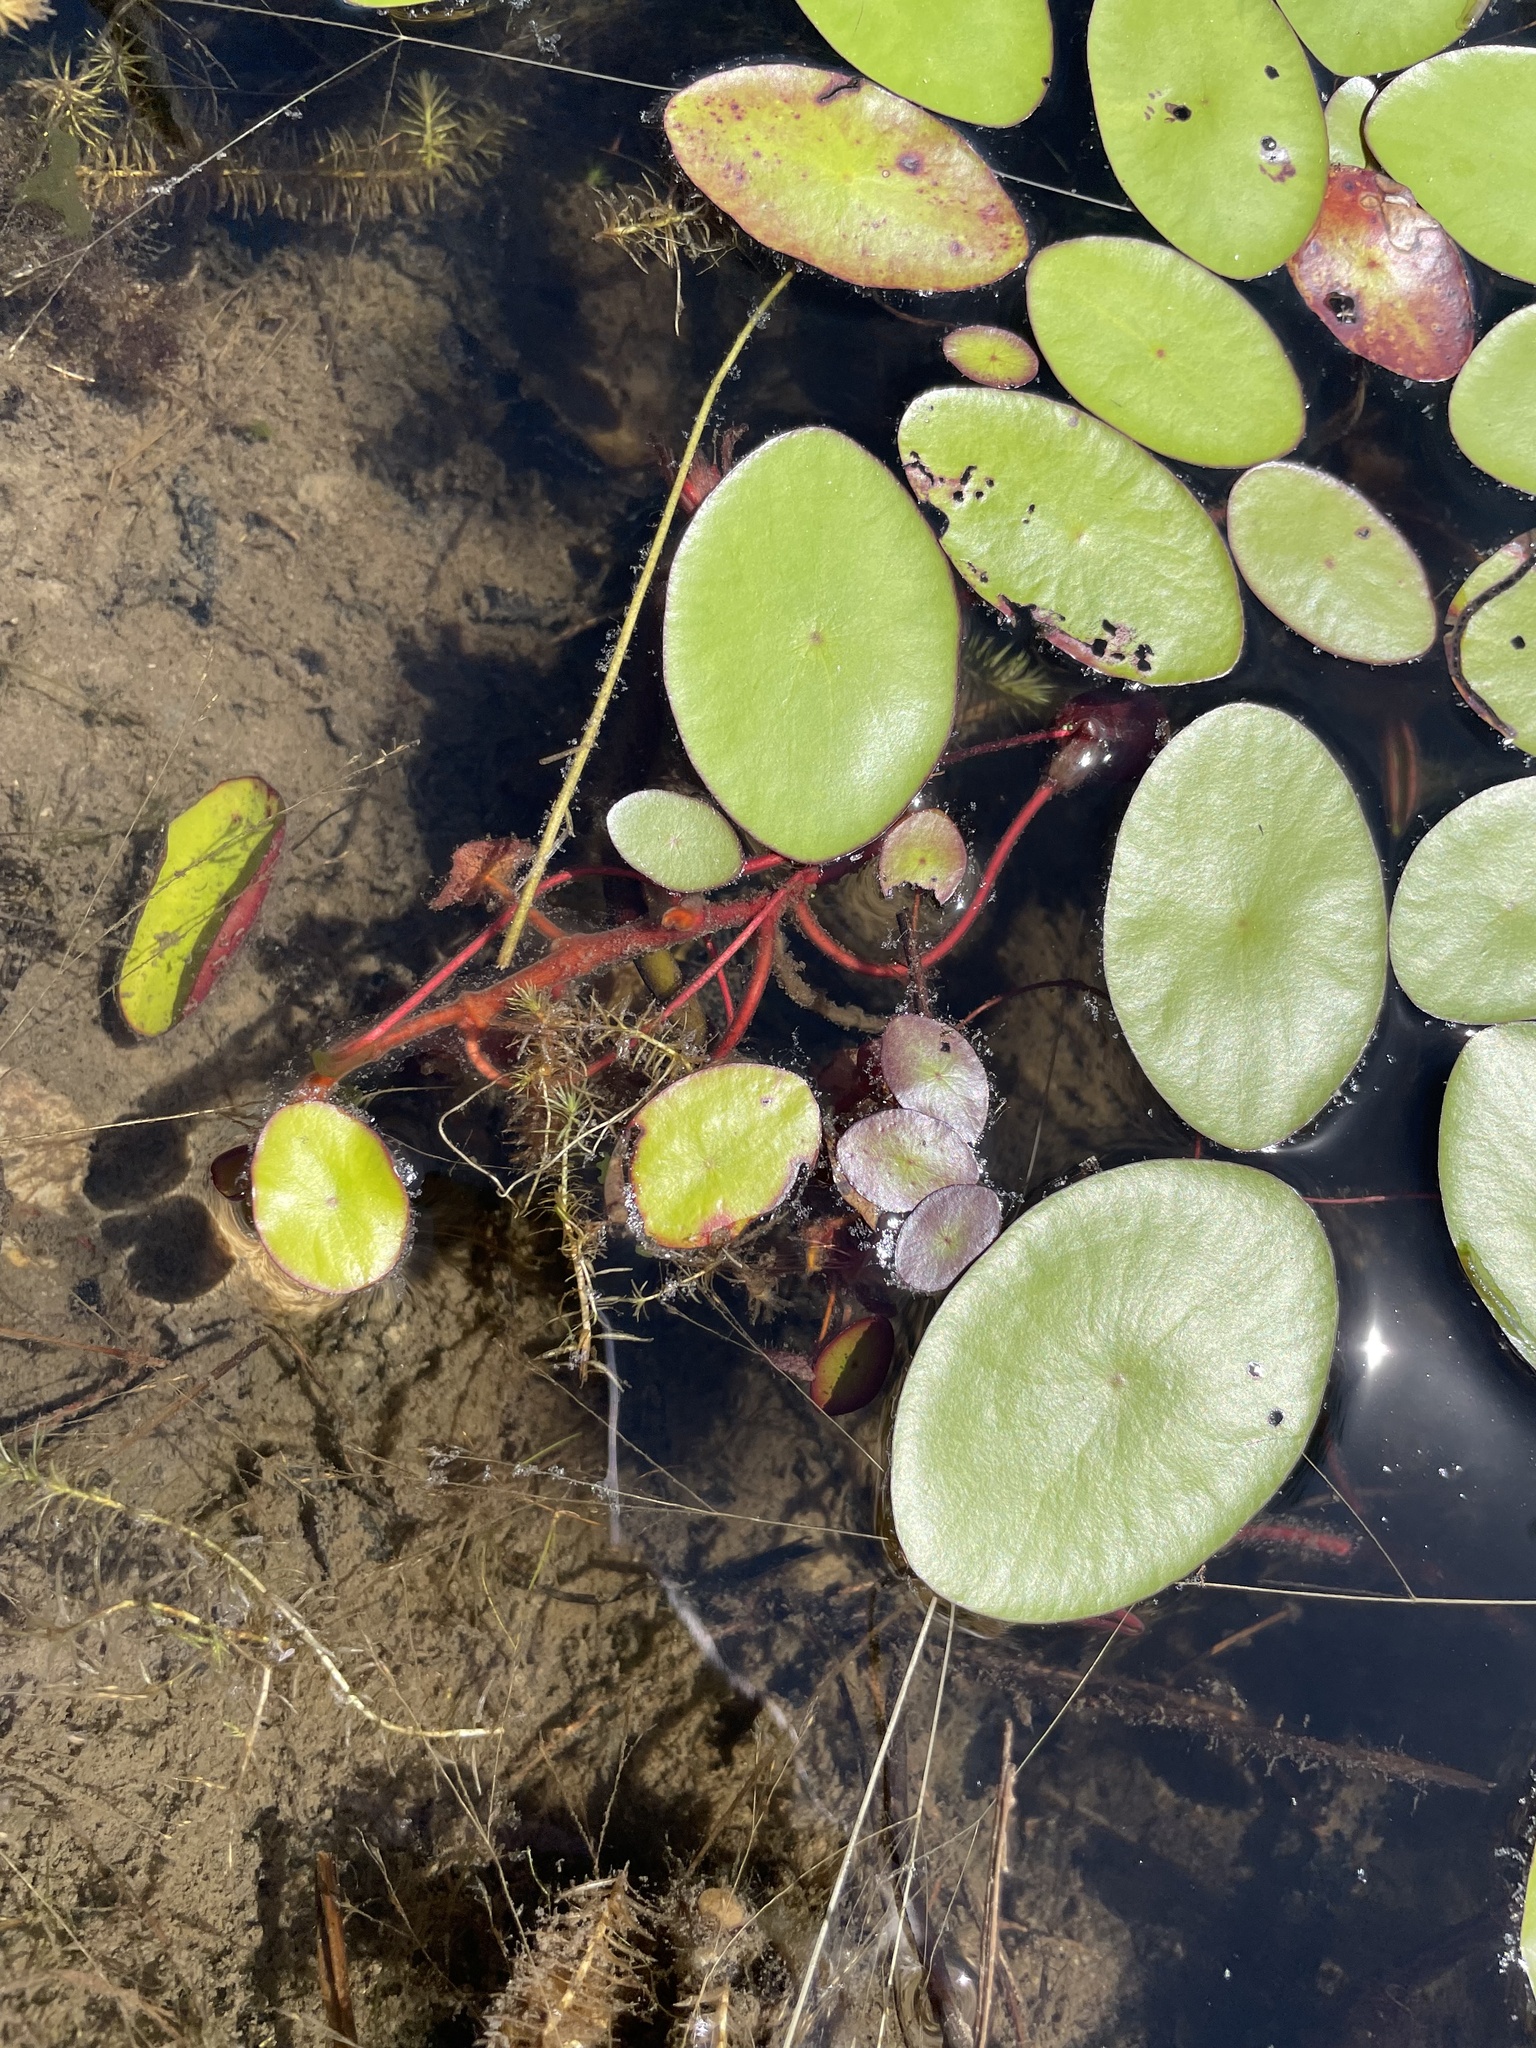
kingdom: Plantae
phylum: Tracheophyta
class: Magnoliopsida
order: Nymphaeales
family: Cabombaceae
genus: Brasenia
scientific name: Brasenia schreberi
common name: Water-shield
